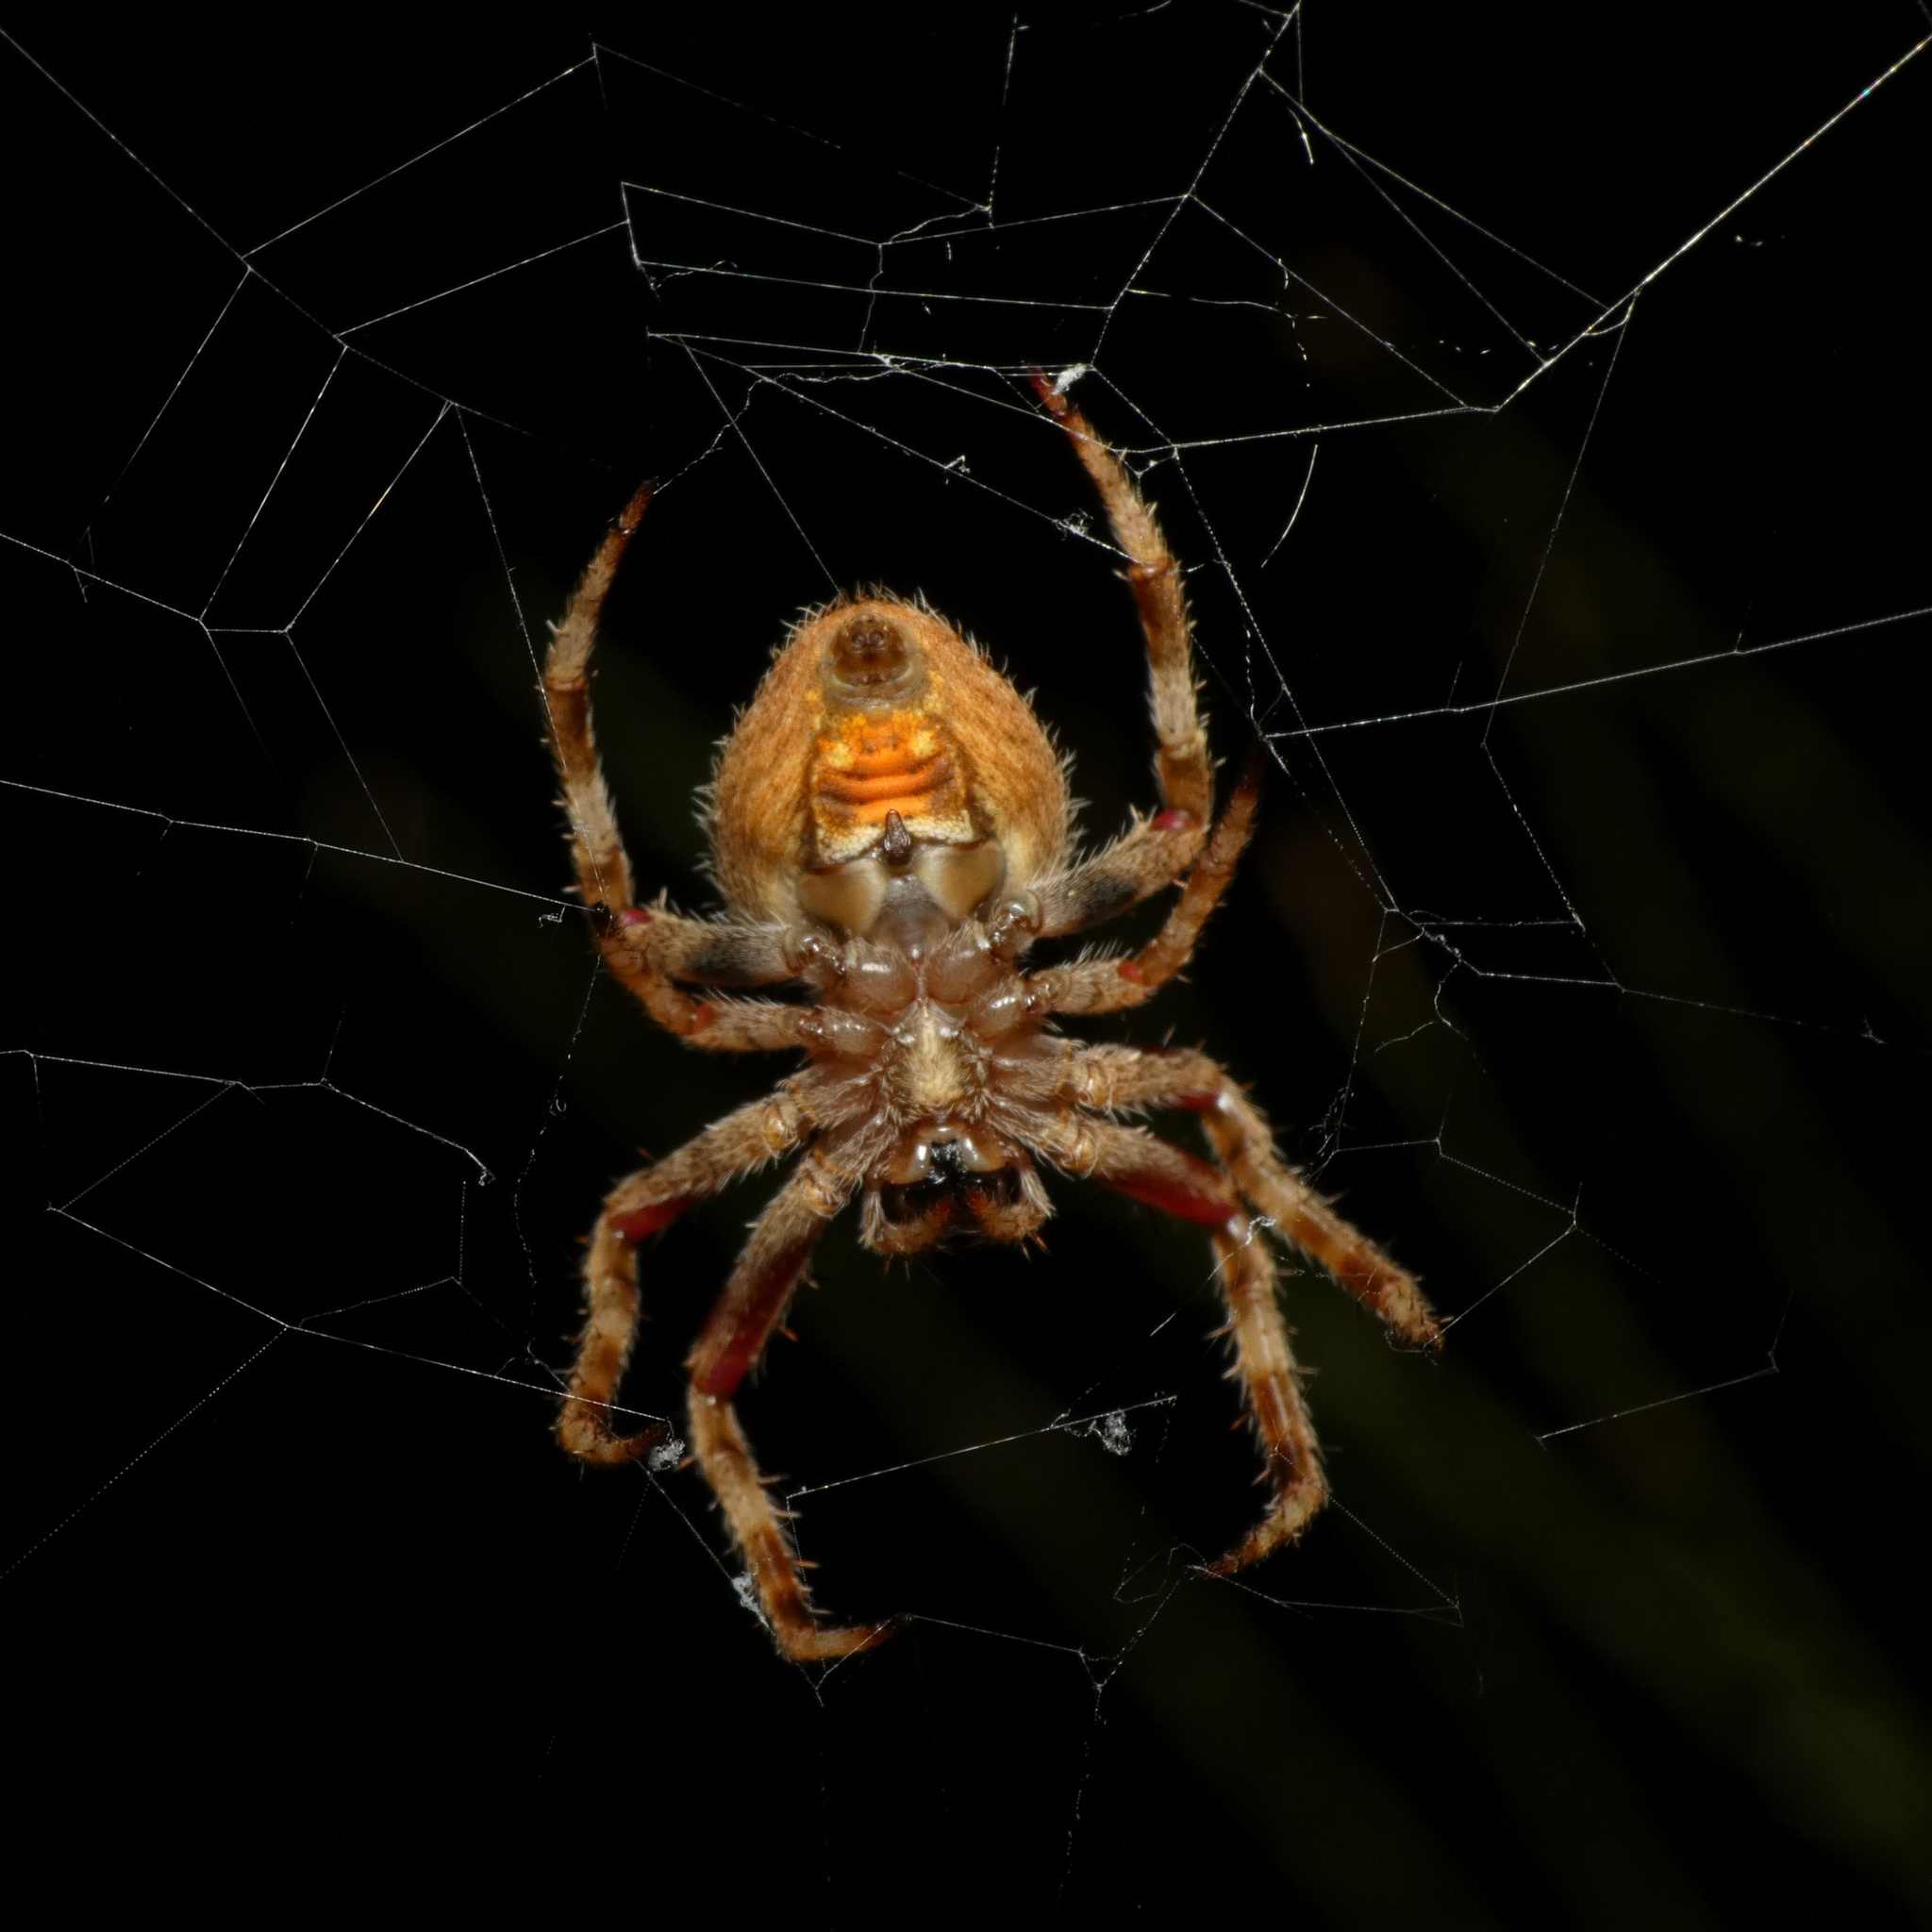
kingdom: Animalia
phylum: Arthropoda
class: Arachnida
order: Araneae
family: Araneidae
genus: Neoscona
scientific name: Neoscona triangula
